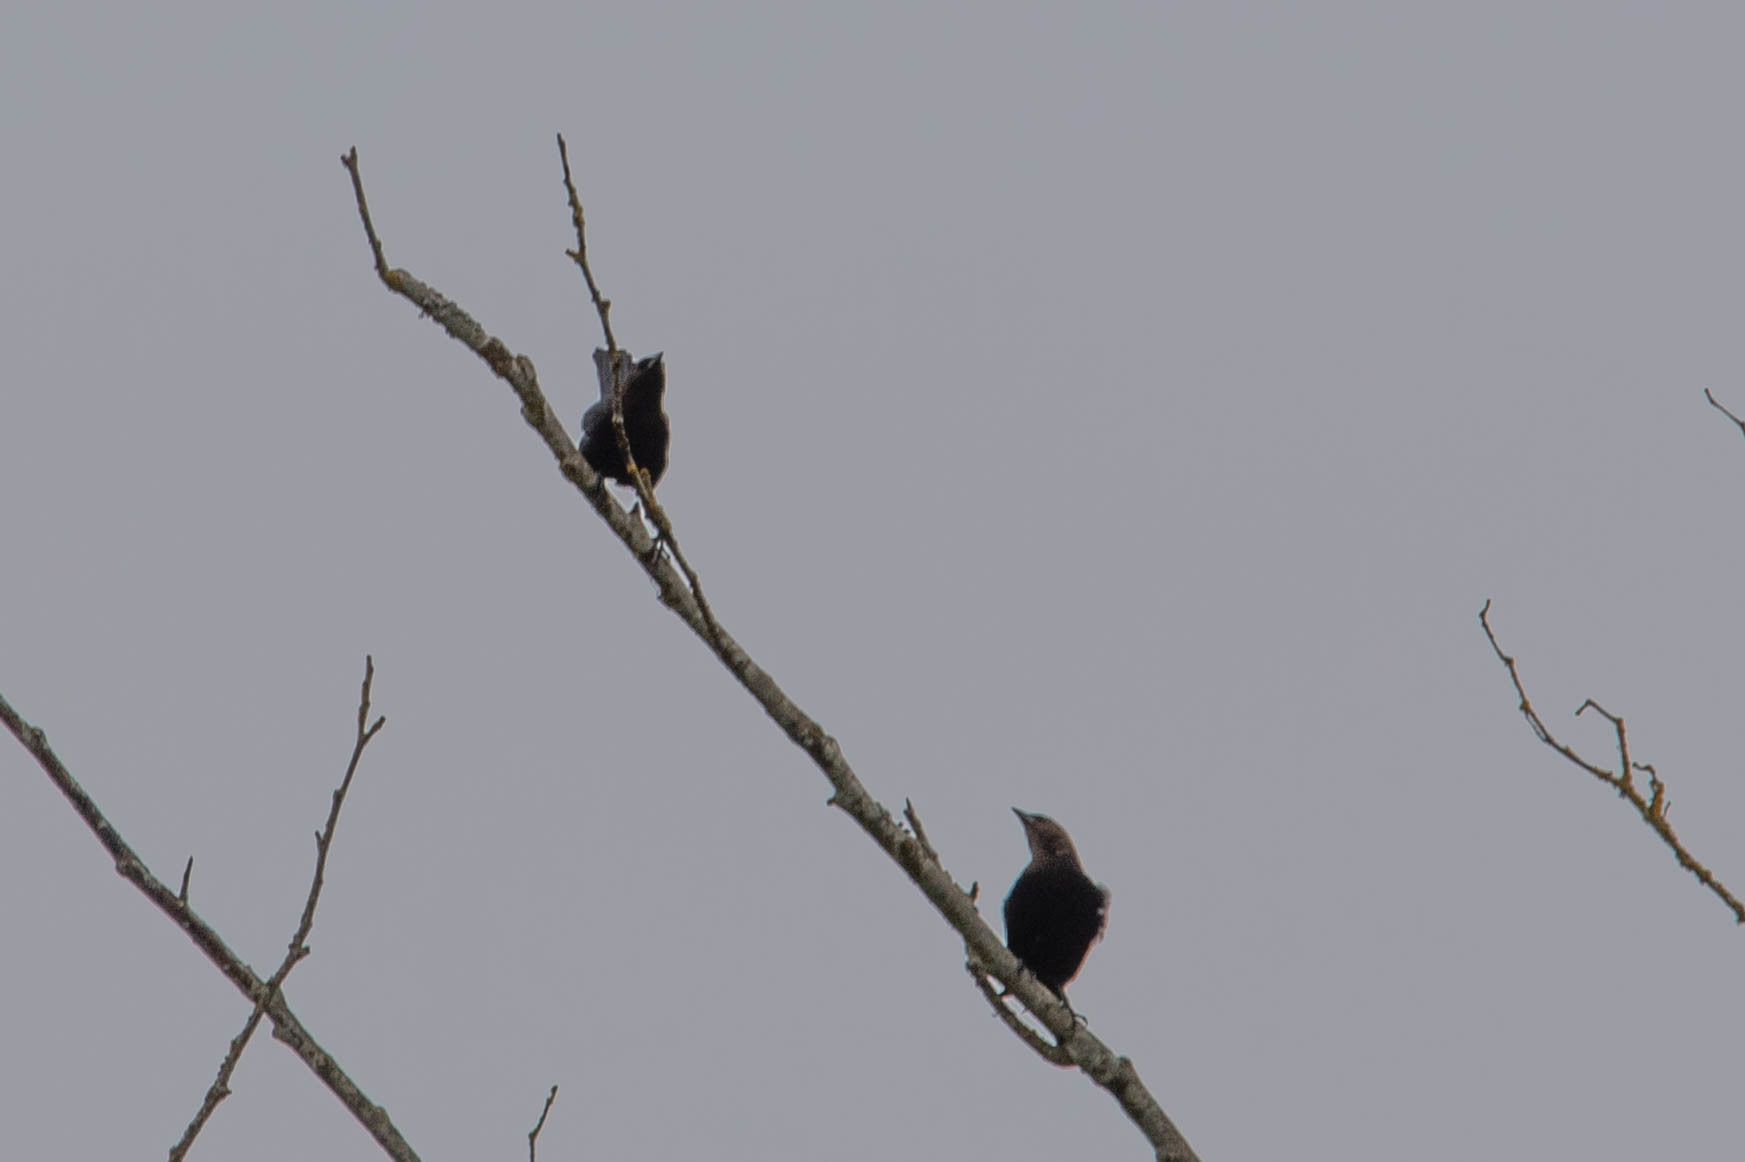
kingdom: Animalia
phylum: Chordata
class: Aves
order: Passeriformes
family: Icteridae
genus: Molothrus
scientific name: Molothrus ater
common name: Brown-headed cowbird
